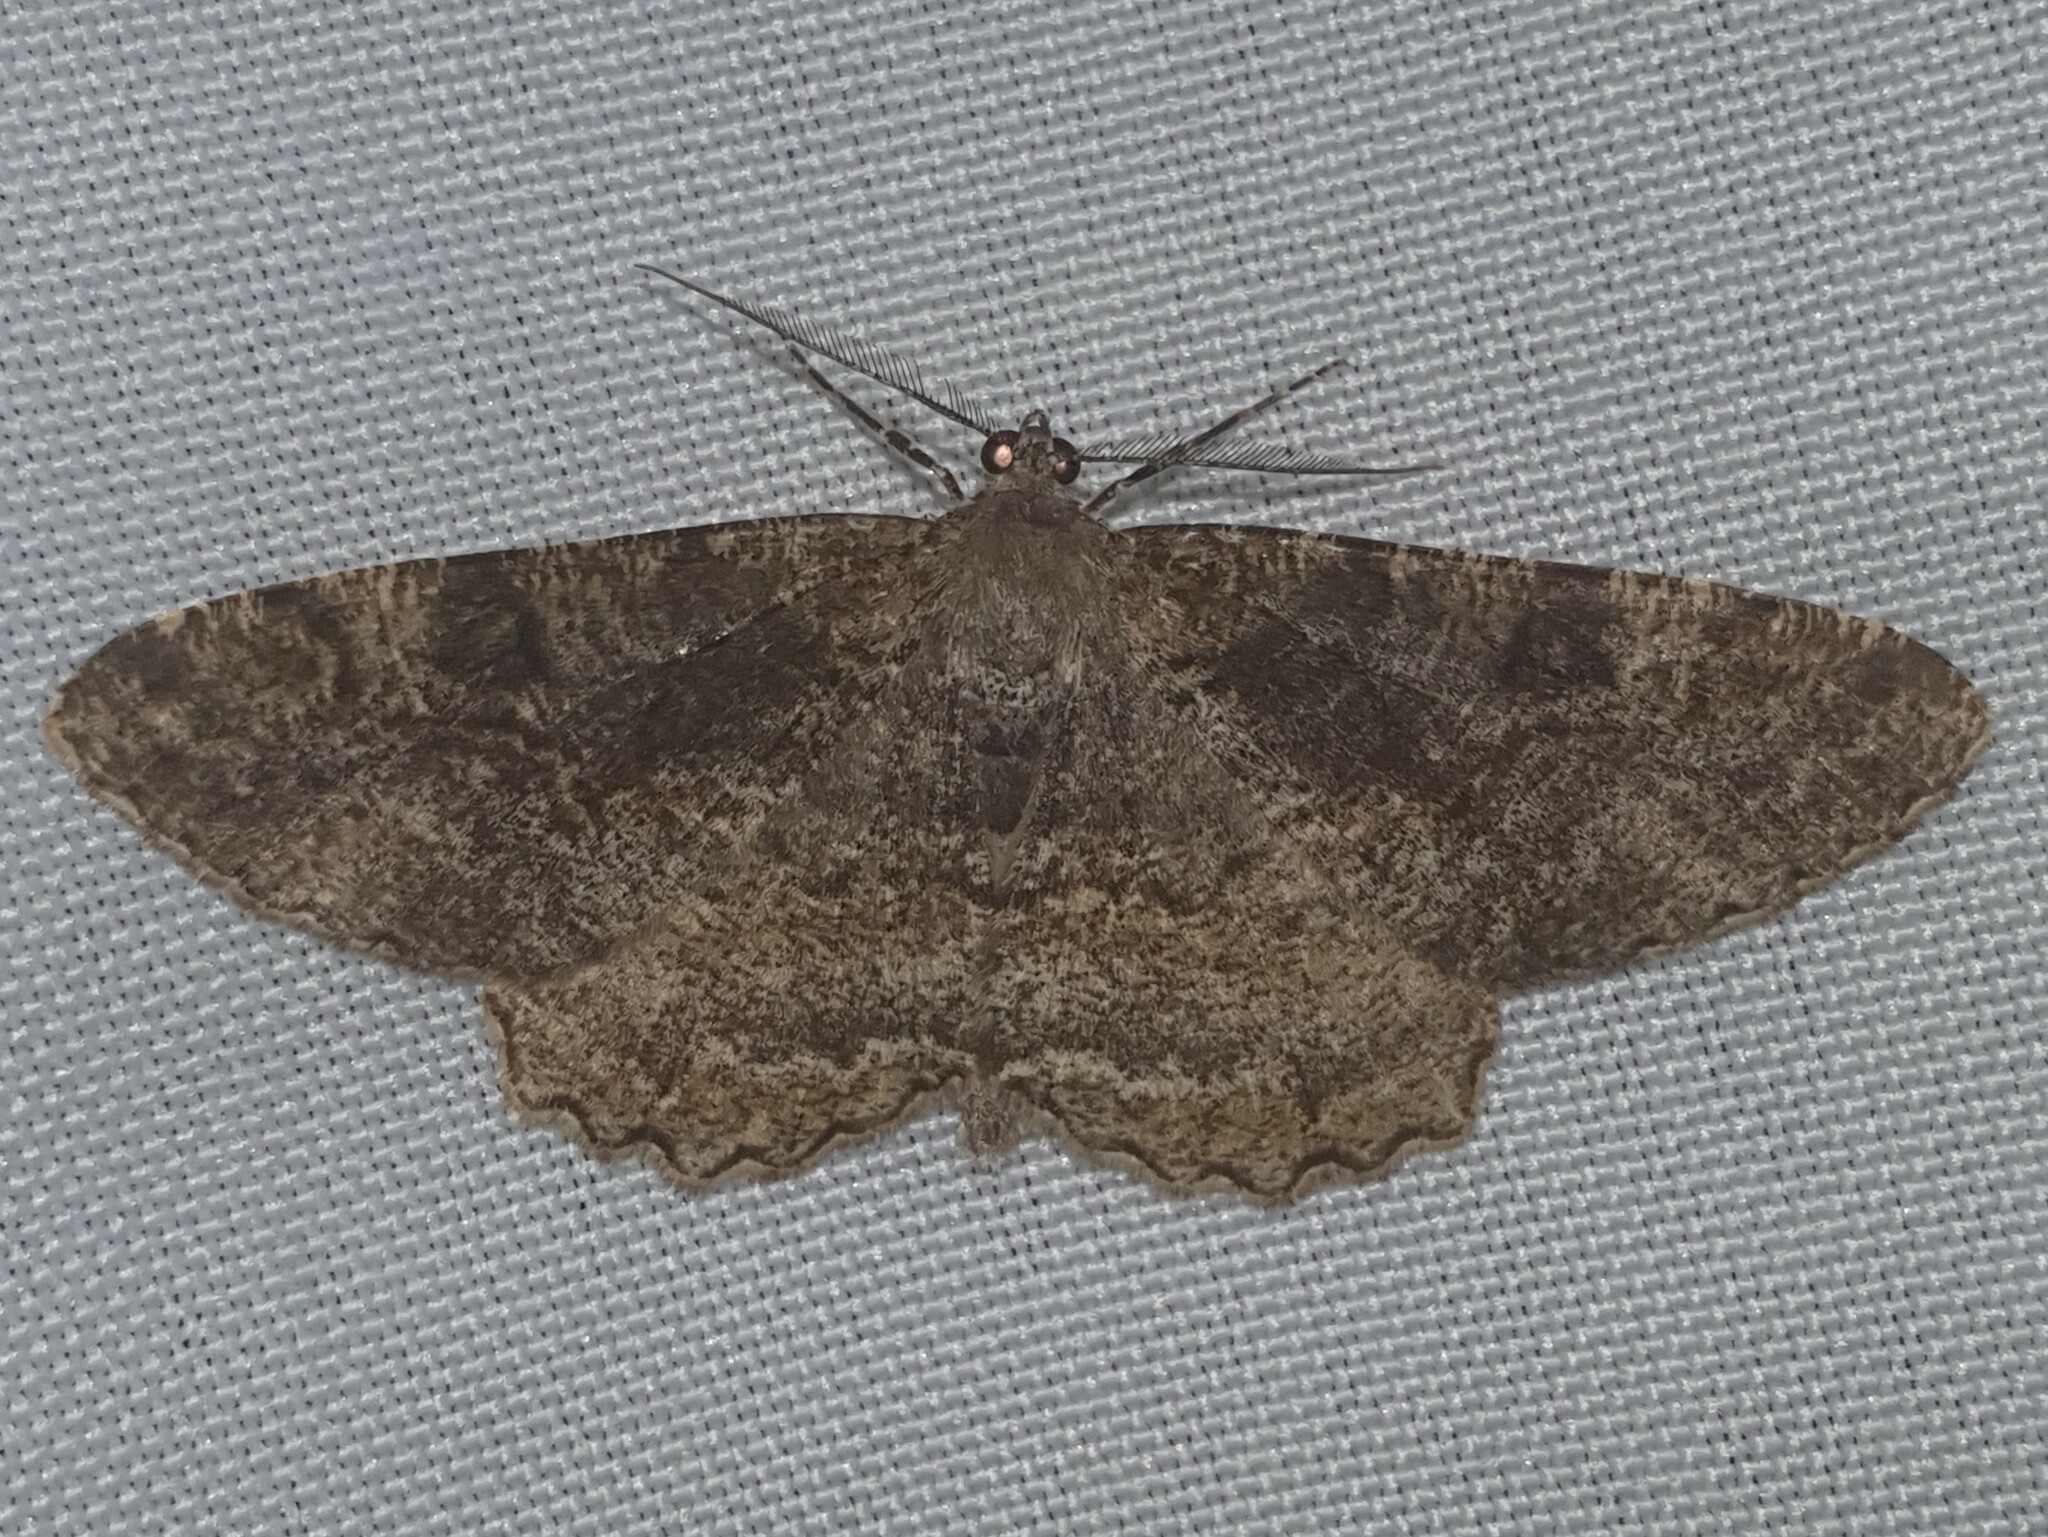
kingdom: Animalia
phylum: Arthropoda
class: Insecta
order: Lepidoptera
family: Geometridae
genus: Alcis
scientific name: Alcis repandata
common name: Mottled beauty
